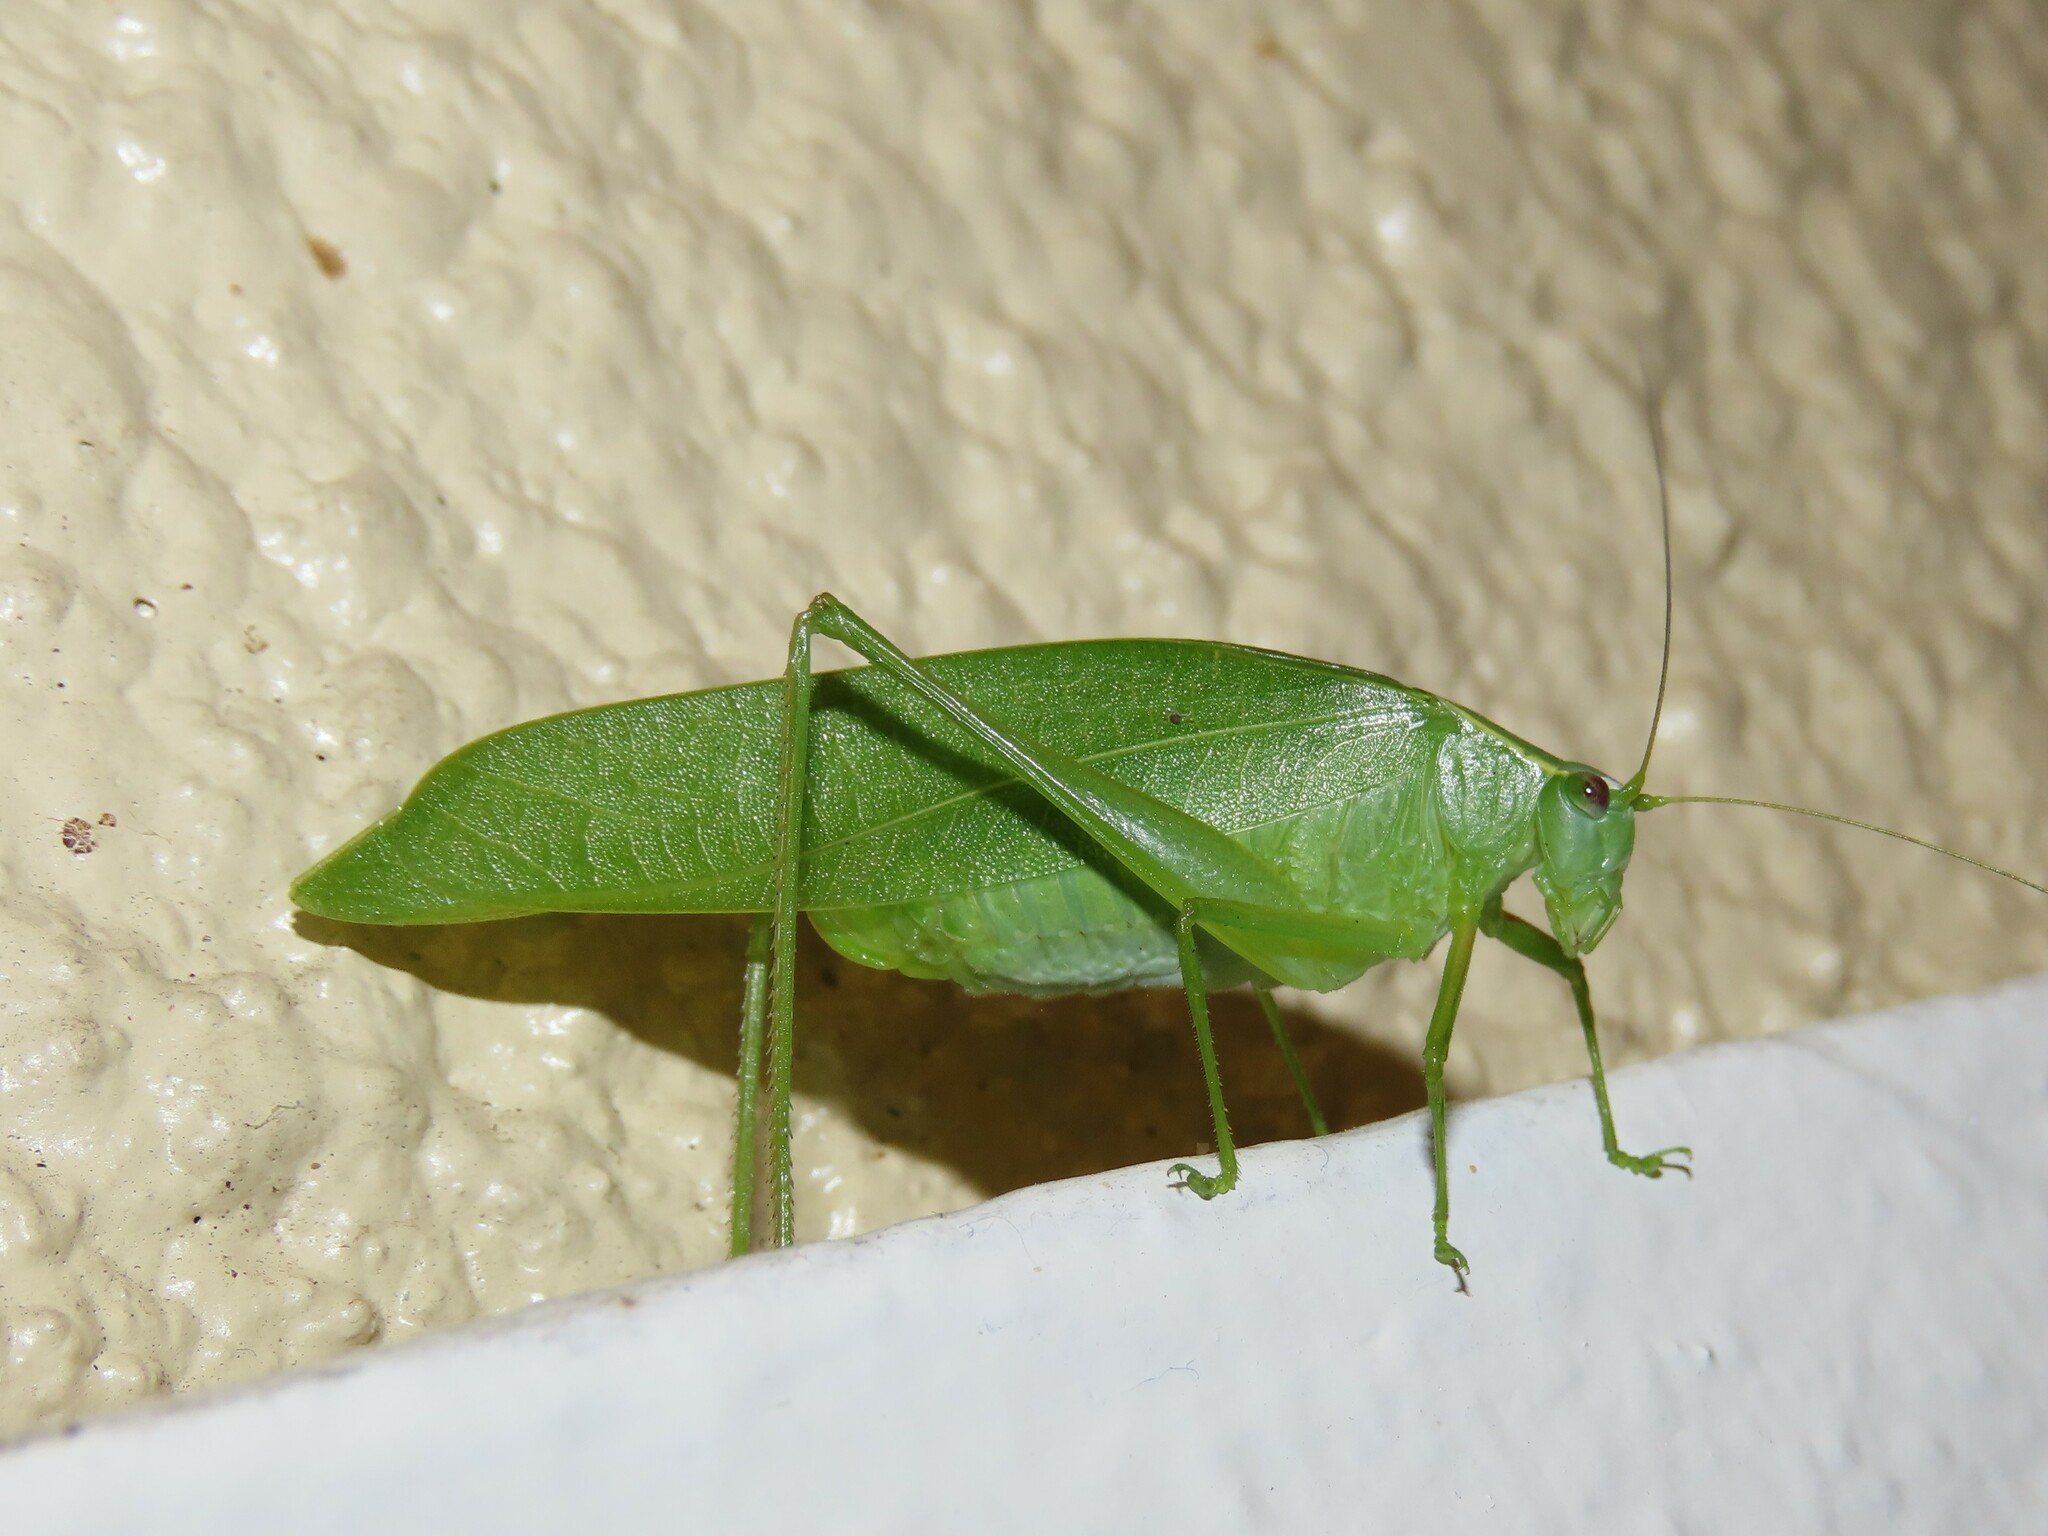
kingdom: Animalia
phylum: Arthropoda
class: Insecta
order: Orthoptera
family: Tettigoniidae
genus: Turpilia
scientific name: Turpilia rostrata
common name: Narrow-beaked katydid
